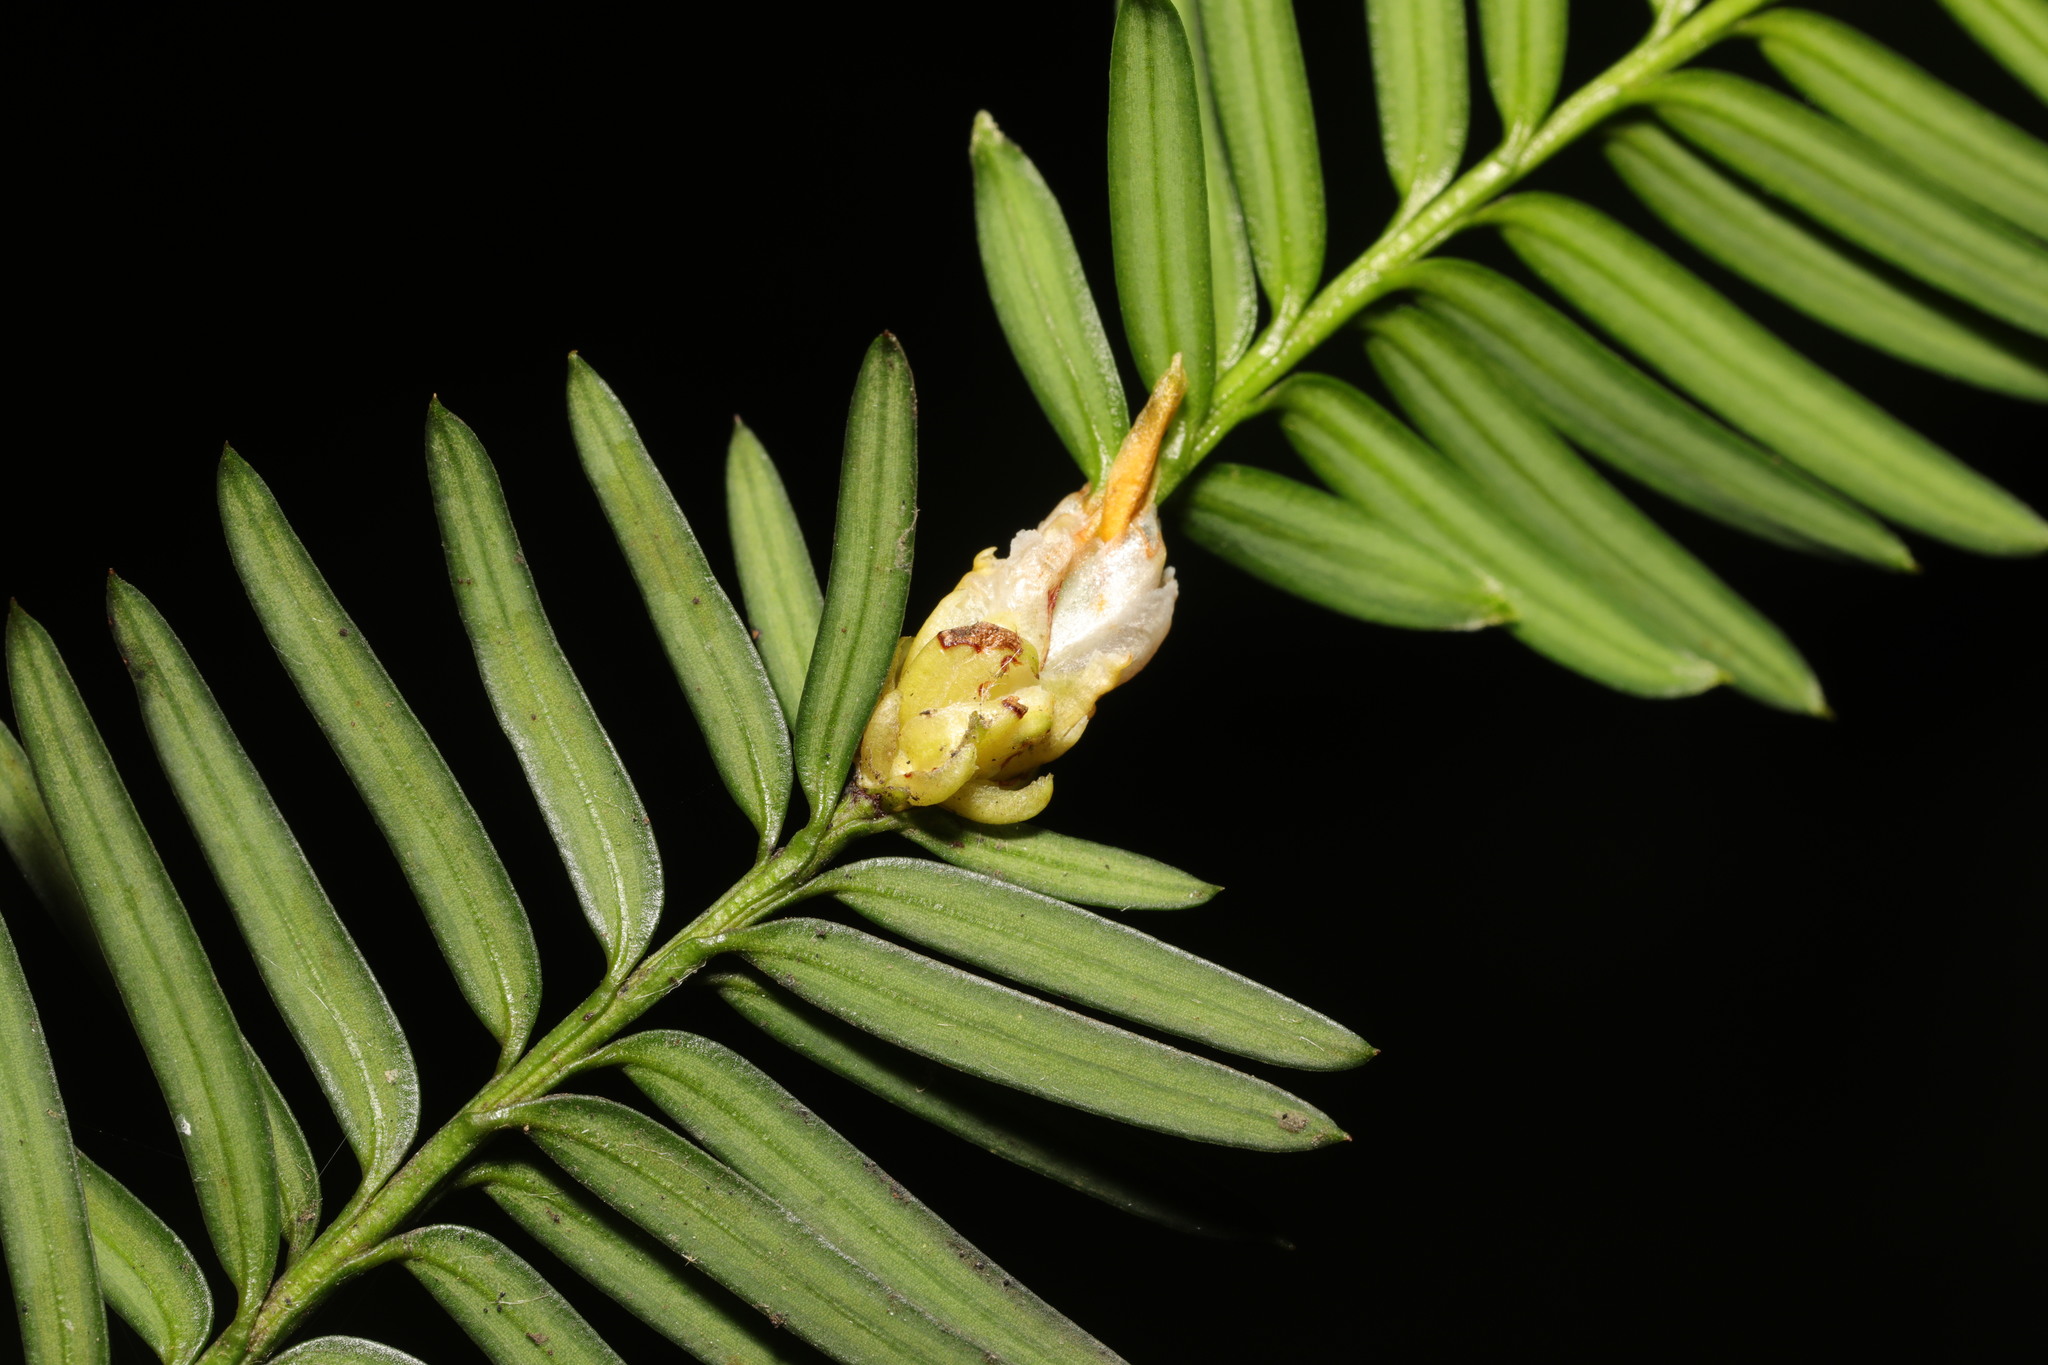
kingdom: Animalia
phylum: Arthropoda
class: Arachnida
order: Trombidiformes
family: Eriophyidae
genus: Cecidophyopsis
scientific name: Cecidophyopsis psilaspis
